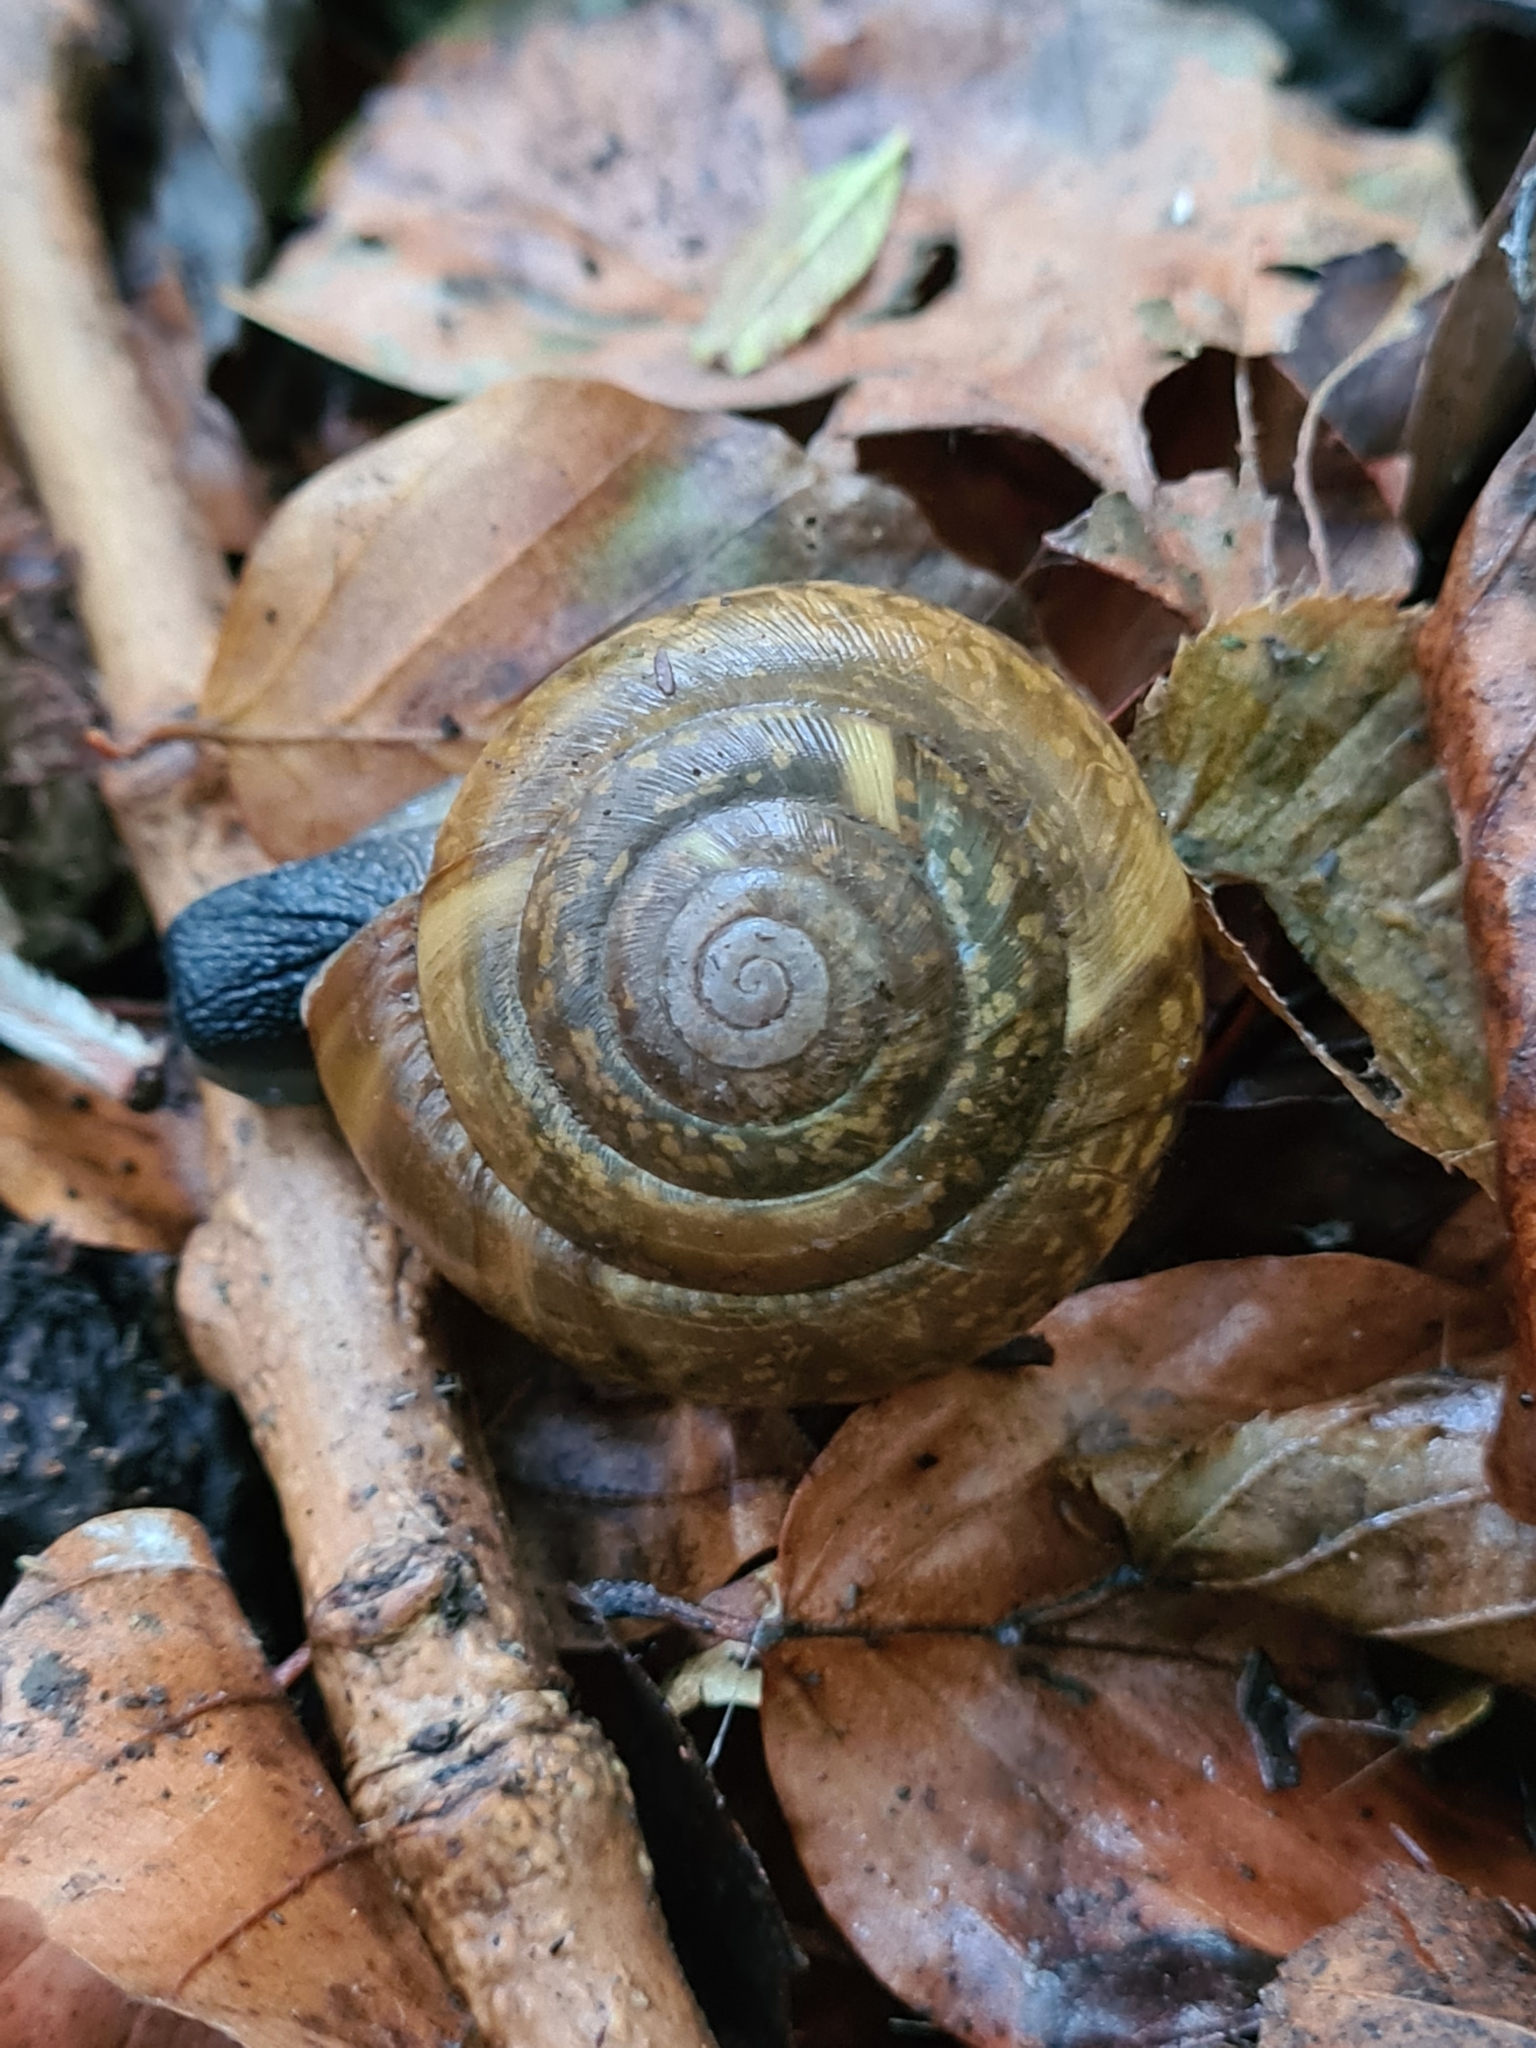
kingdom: Animalia
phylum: Mollusca
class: Gastropoda
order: Stylommatophora
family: Zonitidae
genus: Aegopis
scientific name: Aegopis verticillus
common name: Giant glass snail
